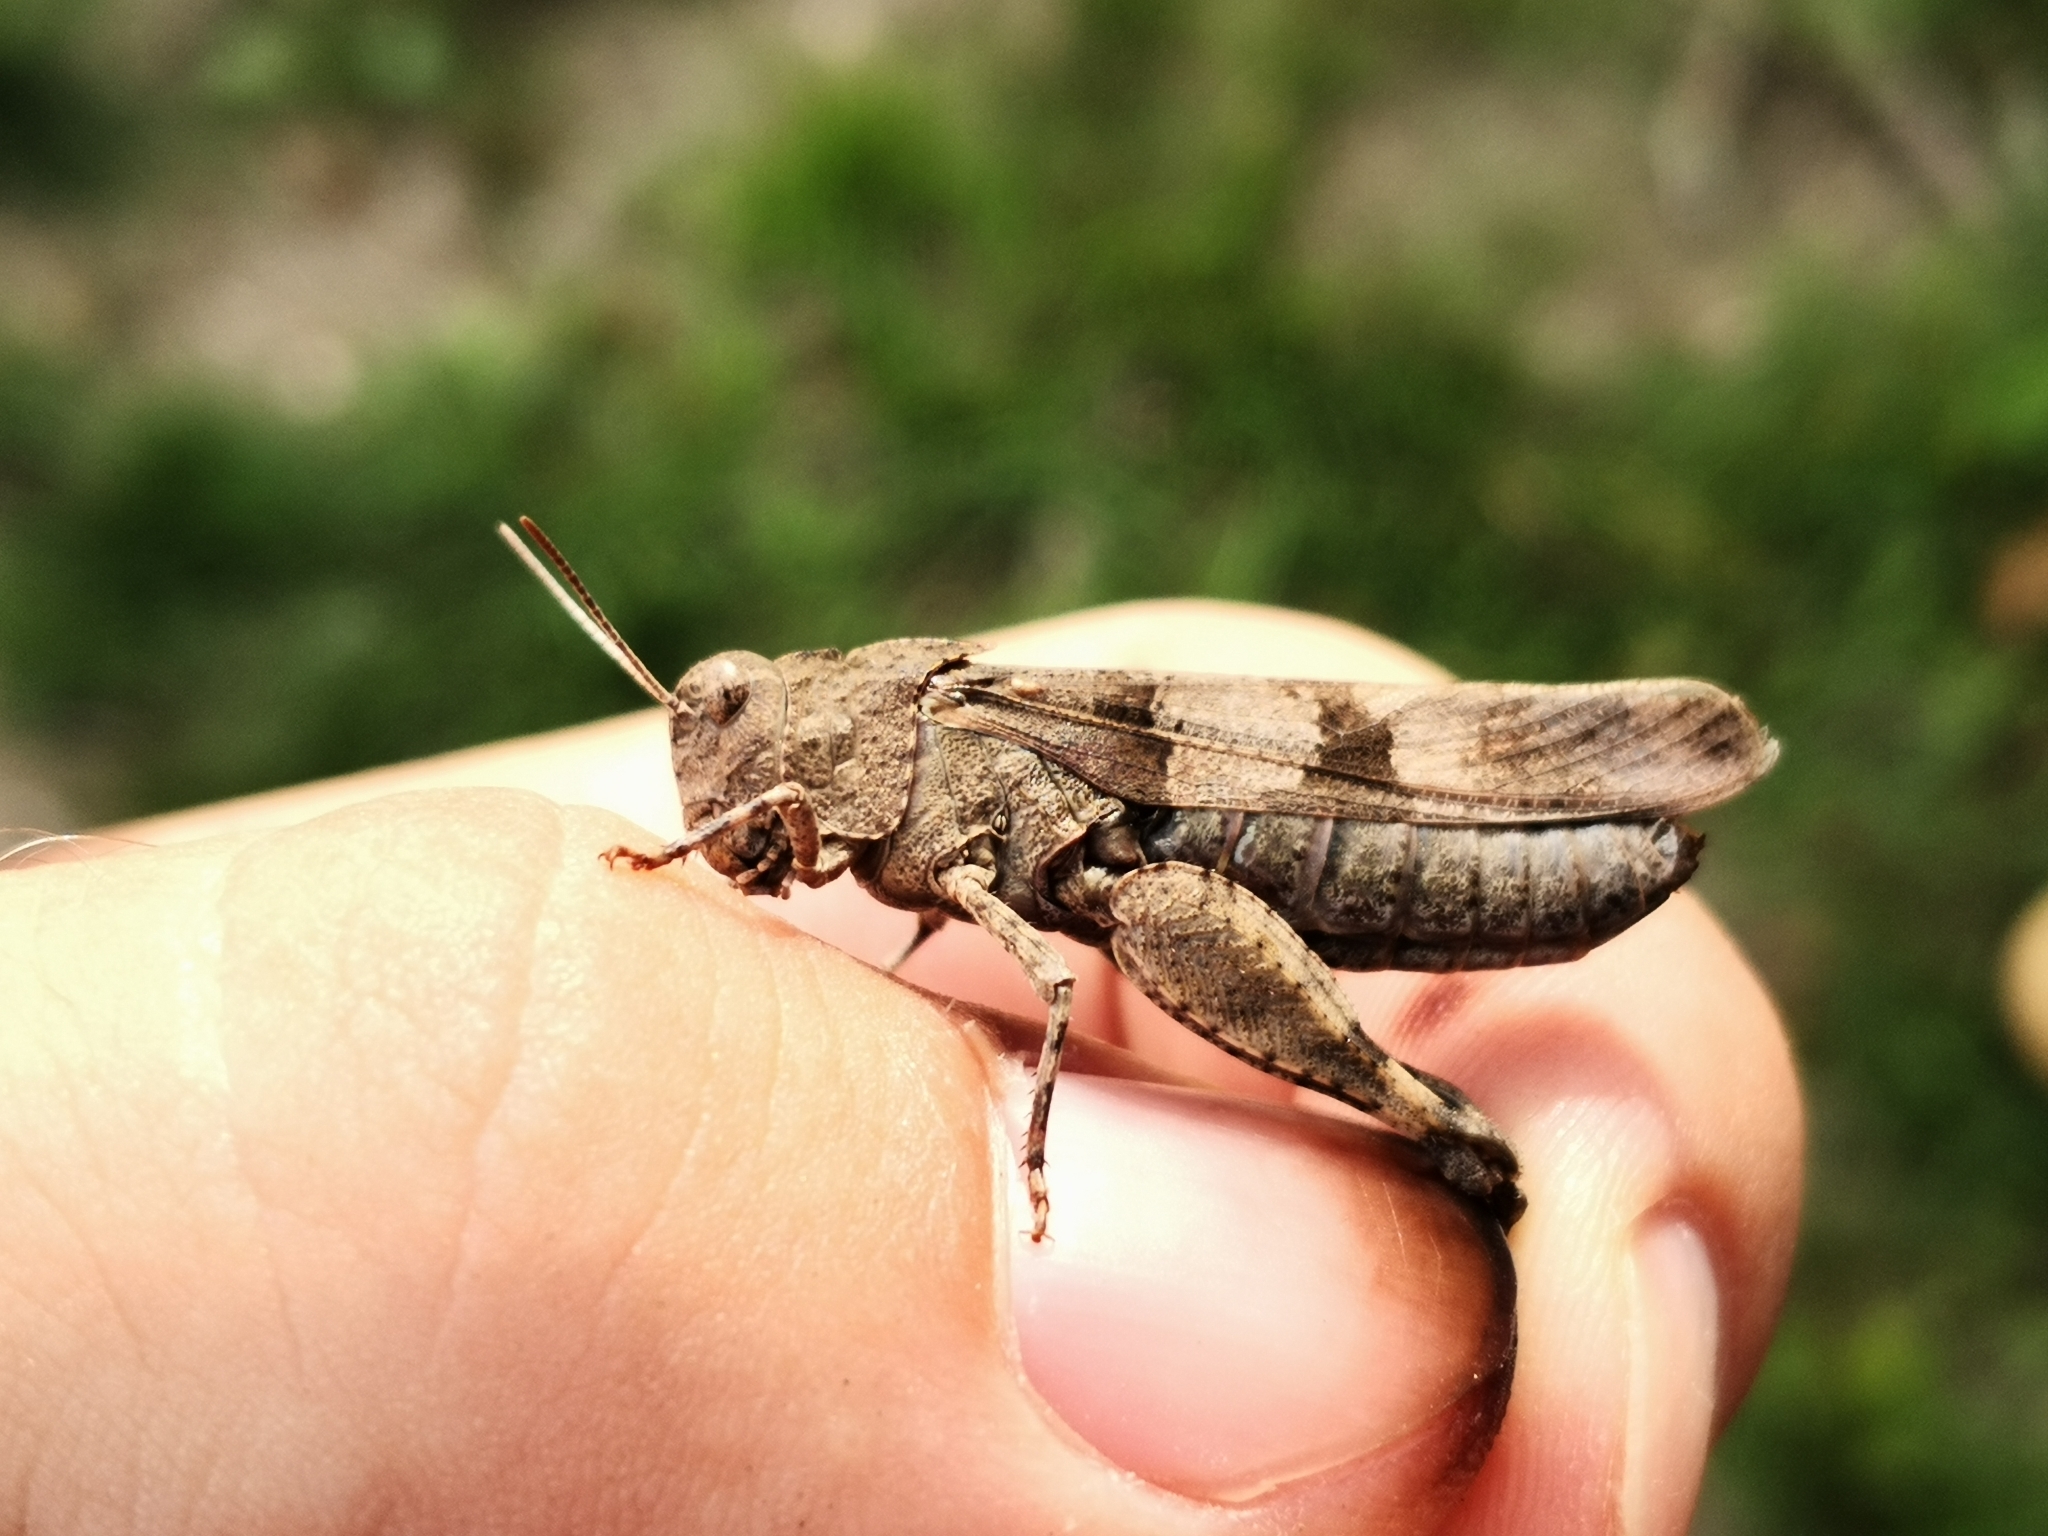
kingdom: Animalia
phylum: Arthropoda
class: Insecta
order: Orthoptera
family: Acrididae
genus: Oedipoda
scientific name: Oedipoda caerulescens
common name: Blue-winged grasshopper
